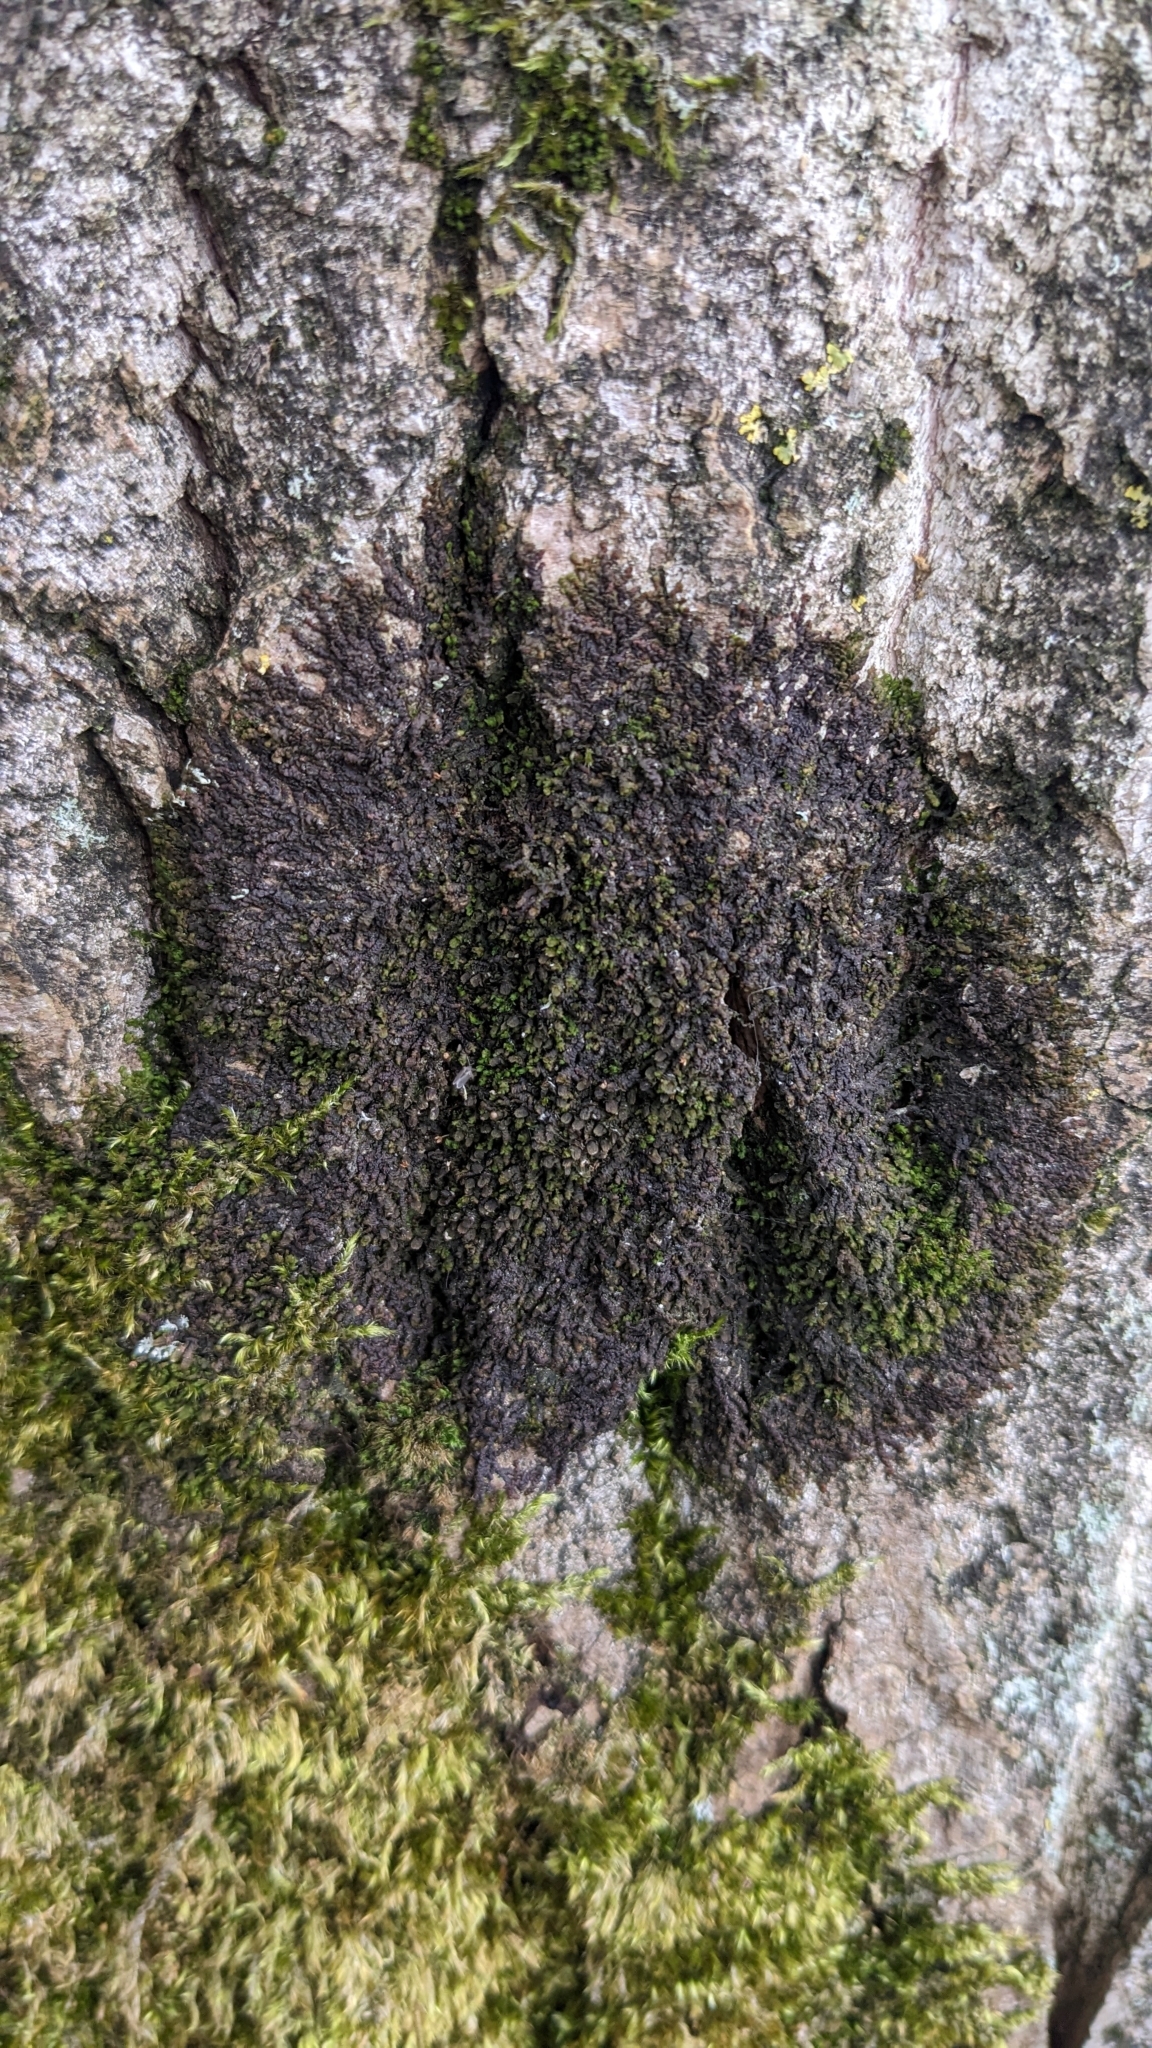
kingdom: Plantae
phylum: Marchantiophyta
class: Jungermanniopsida
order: Porellales
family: Frullaniaceae
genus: Frullania
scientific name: Frullania dilatata
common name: Dilated scalewort
